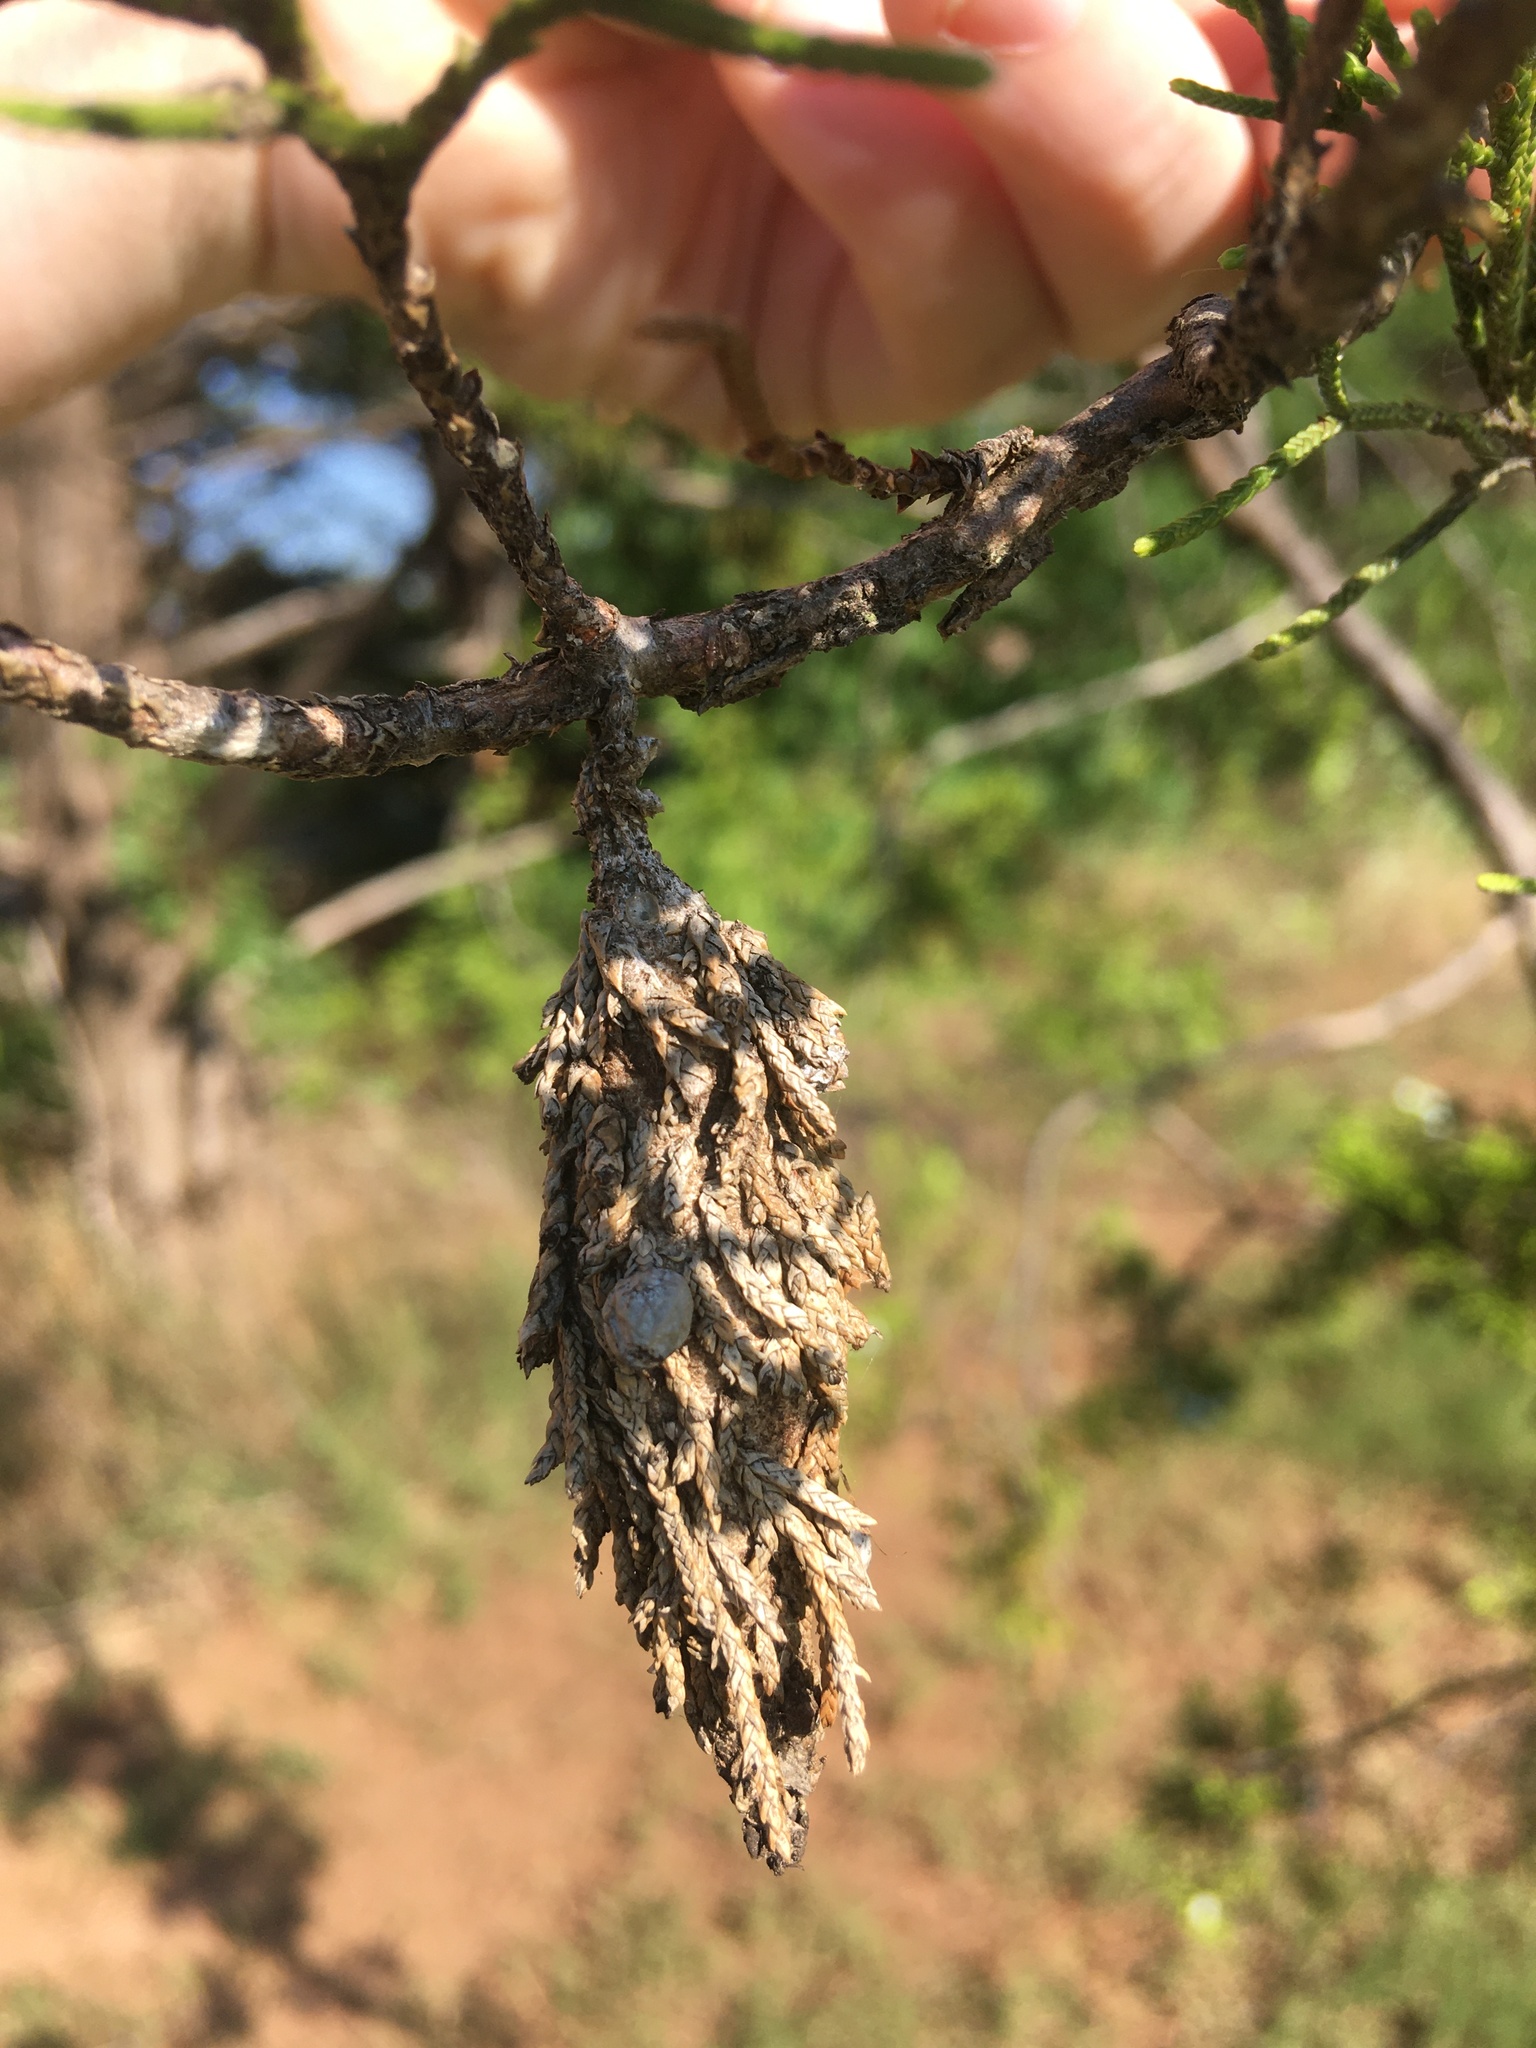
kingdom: Animalia
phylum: Arthropoda
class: Insecta
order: Lepidoptera
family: Psychidae
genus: Thyridopteryx
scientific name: Thyridopteryx ephemeraeformis
